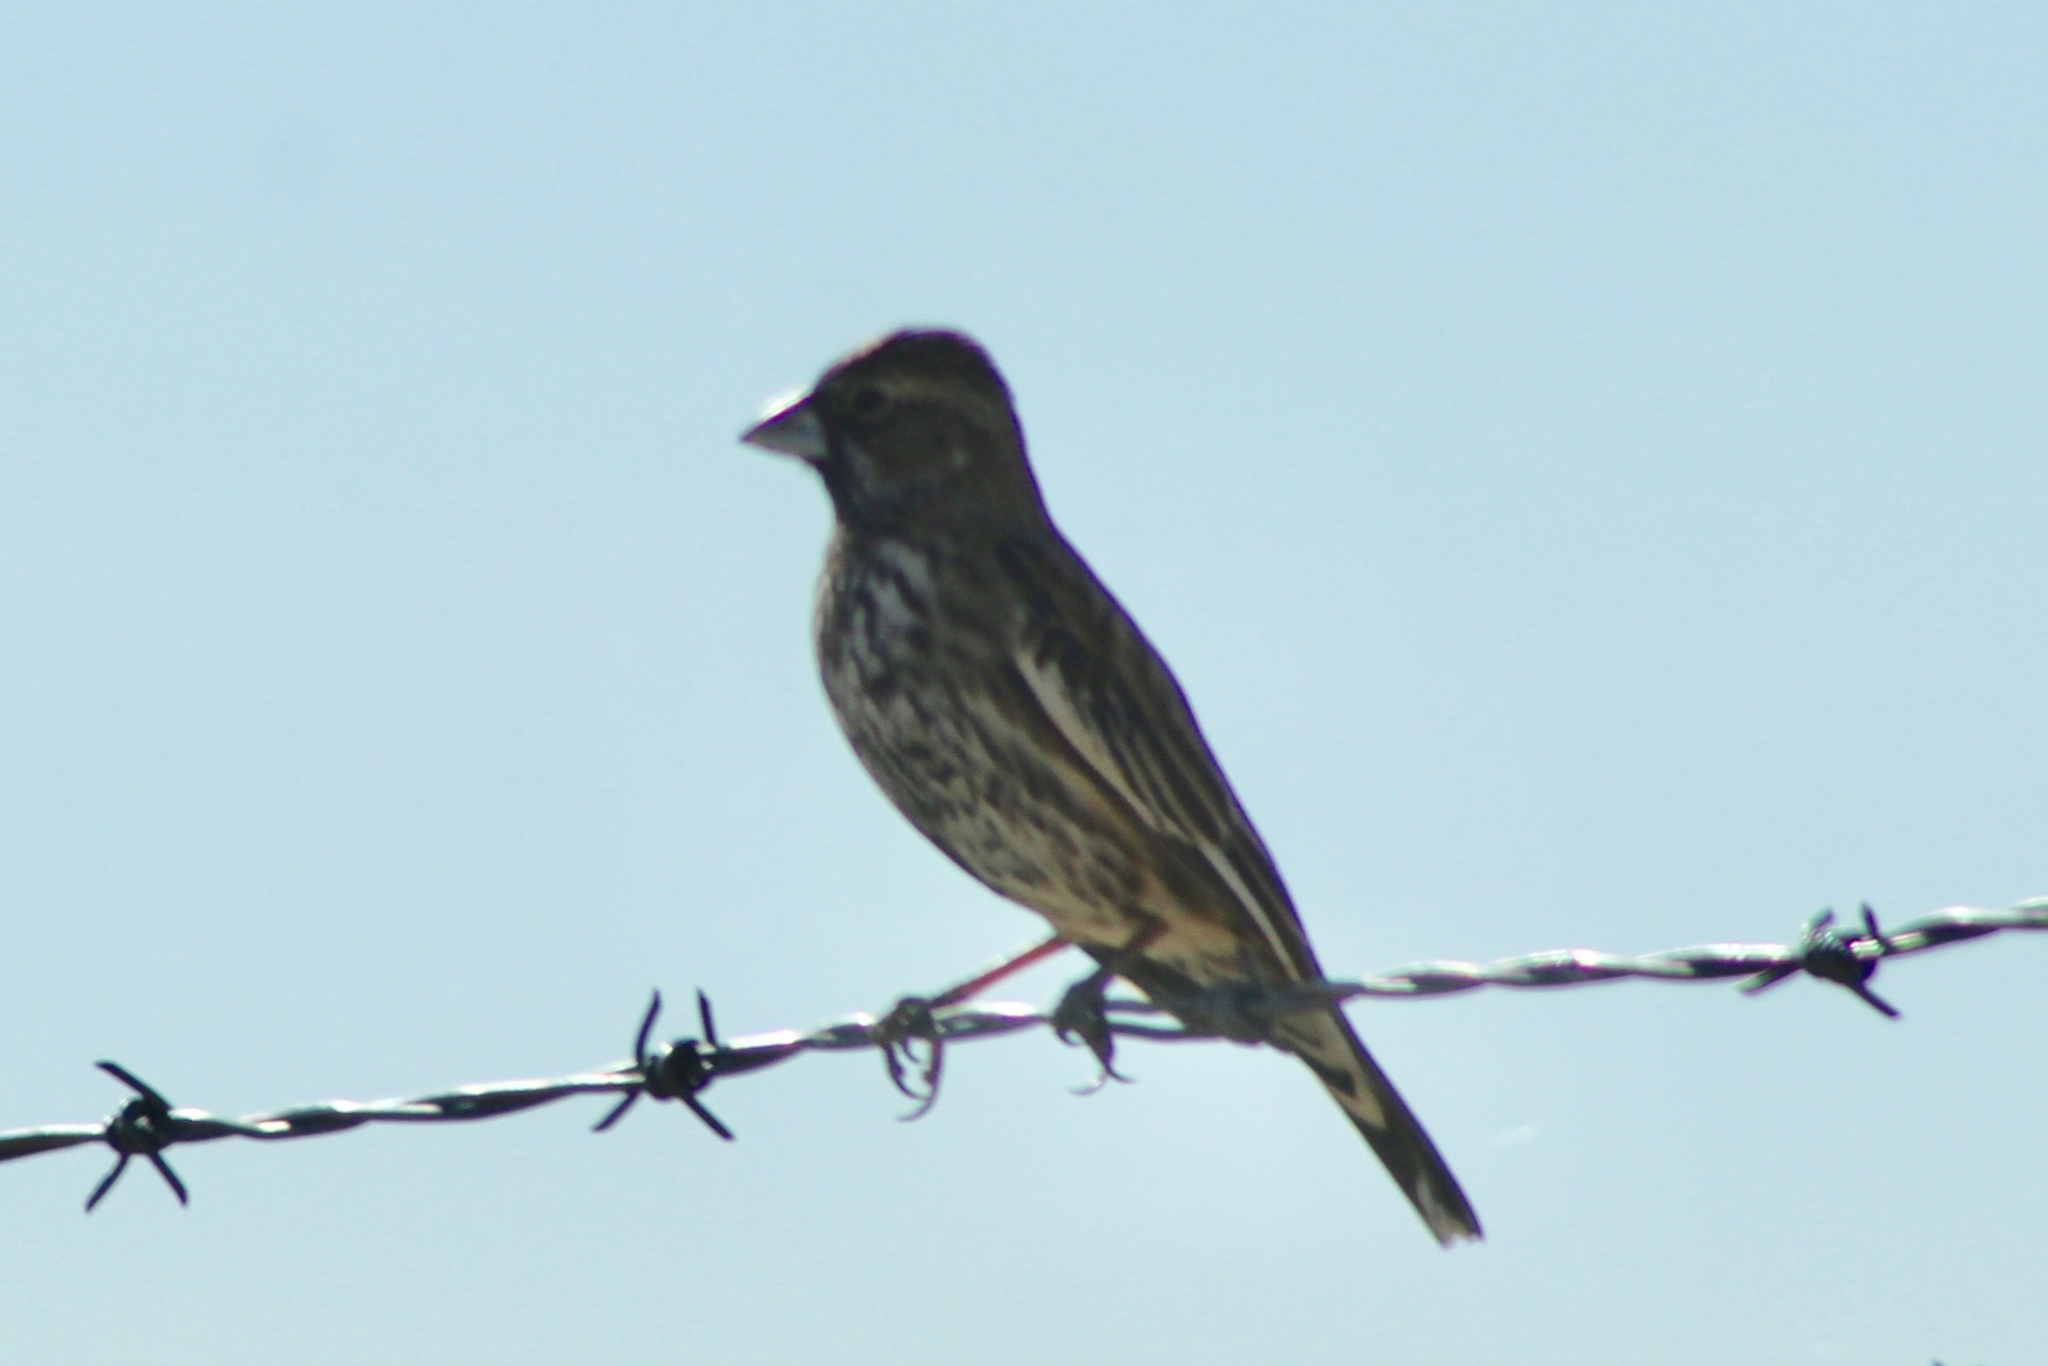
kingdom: Animalia
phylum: Chordata
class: Aves
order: Passeriformes
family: Passerellidae
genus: Calamospiza
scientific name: Calamospiza melanocorys
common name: Lark bunting
